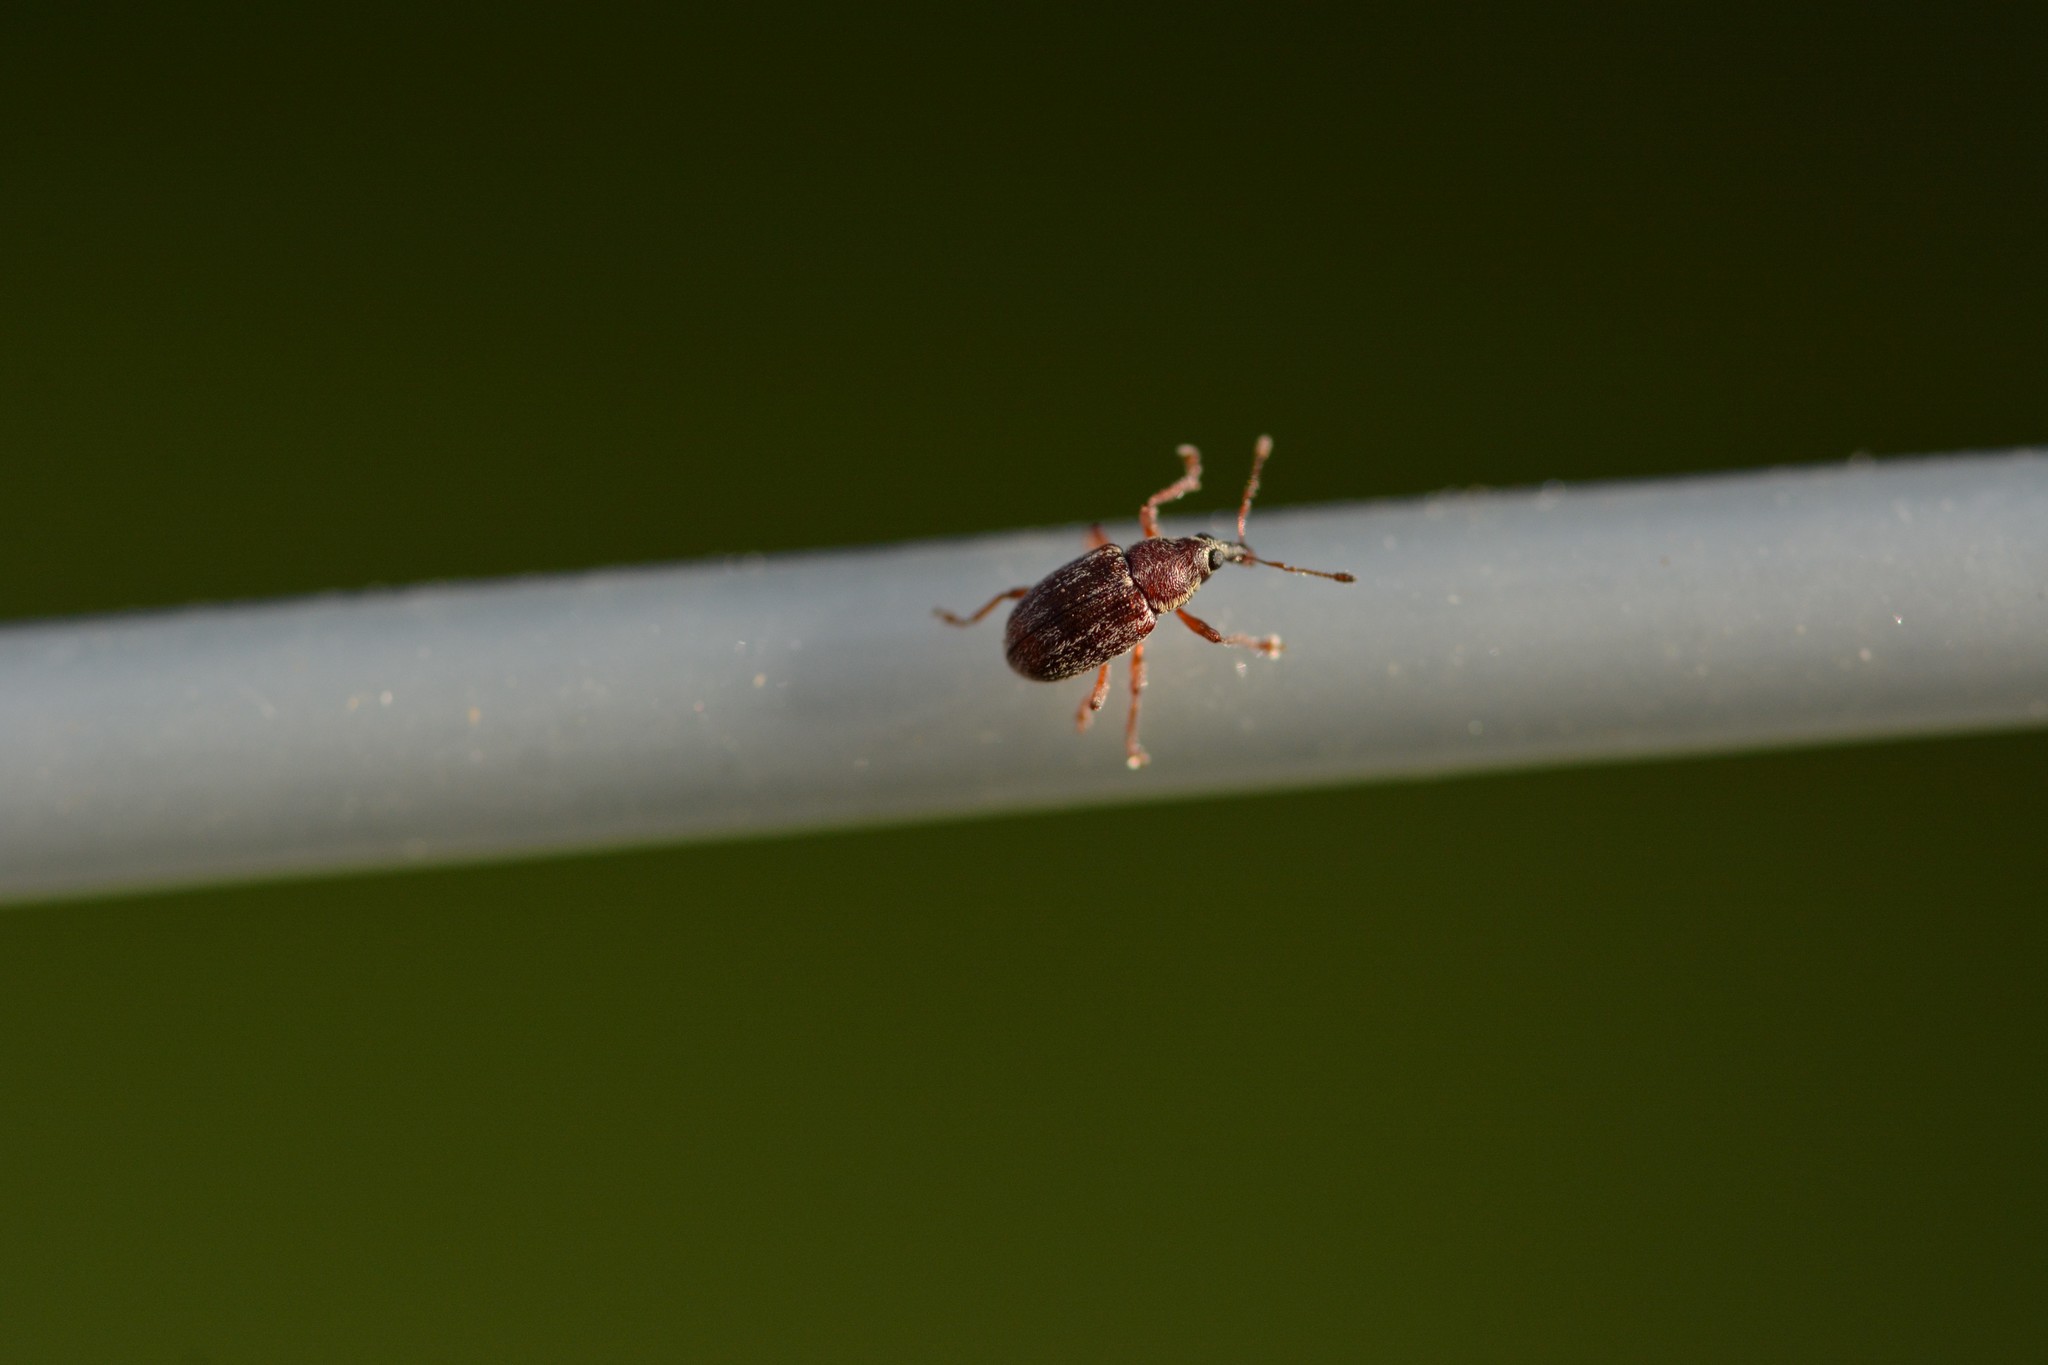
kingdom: Animalia
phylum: Arthropoda
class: Insecta
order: Coleoptera
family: Curculionidae
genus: Neomycta
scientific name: Neomycta rubida
